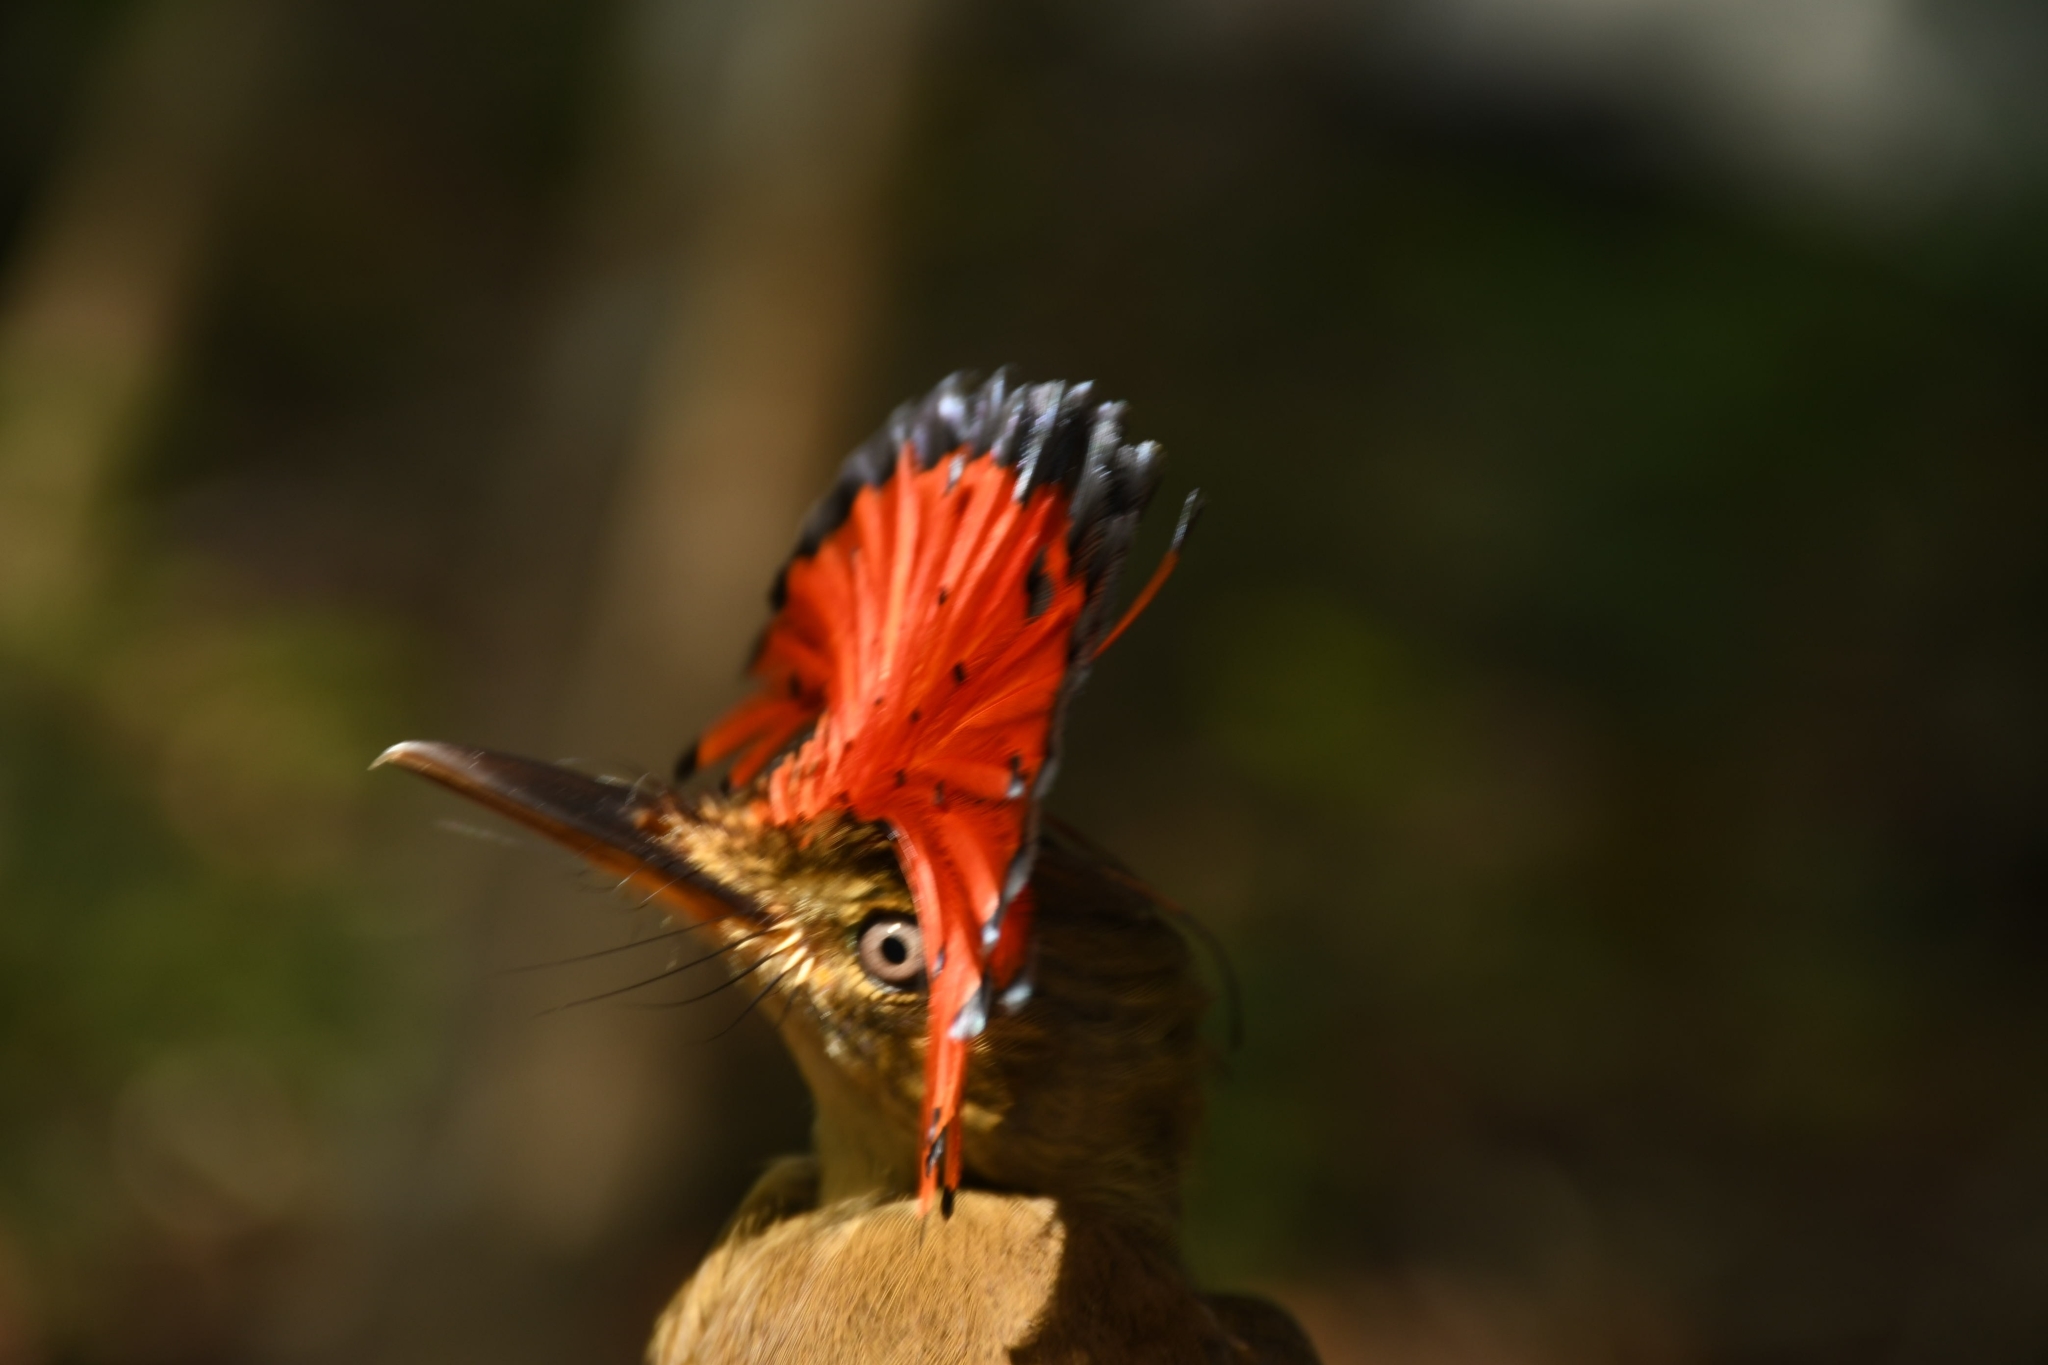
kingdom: Animalia
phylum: Chordata
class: Aves
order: Passeriformes
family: Tyrannidae
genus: Onychorhynchus
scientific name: Onychorhynchus coronatus
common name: Royal flycatcher
